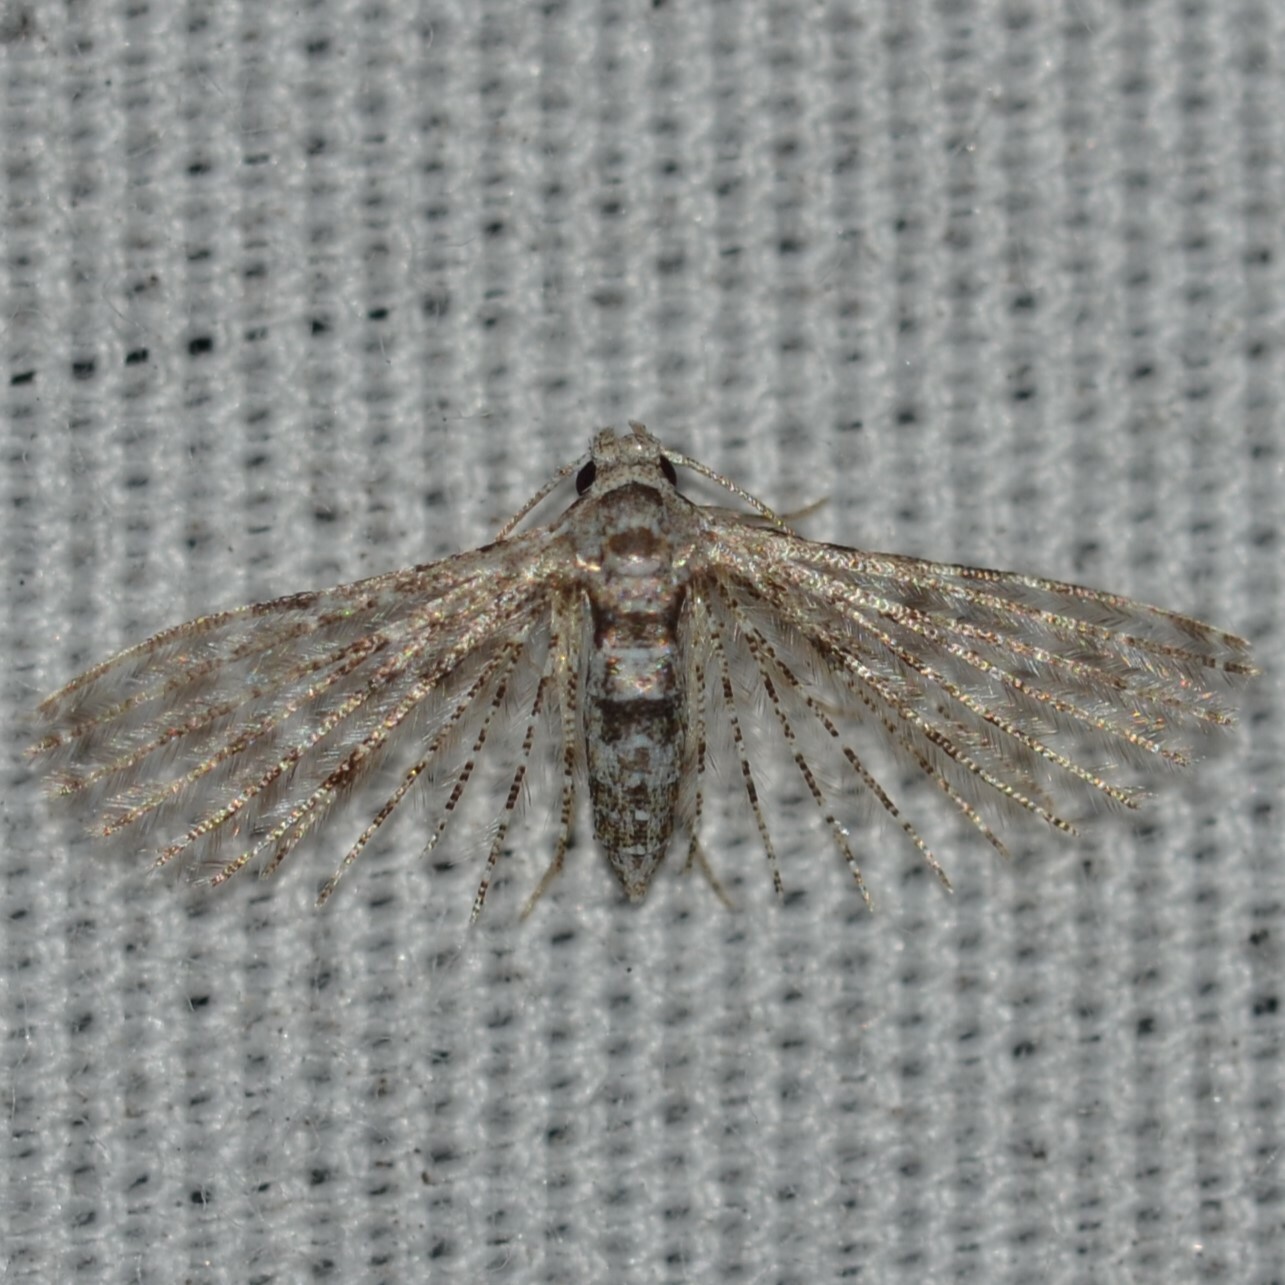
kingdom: Animalia
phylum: Arthropoda
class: Insecta
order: Lepidoptera
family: Alucitidae
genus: Alucita
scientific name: Alucita objurgatella
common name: Moth
